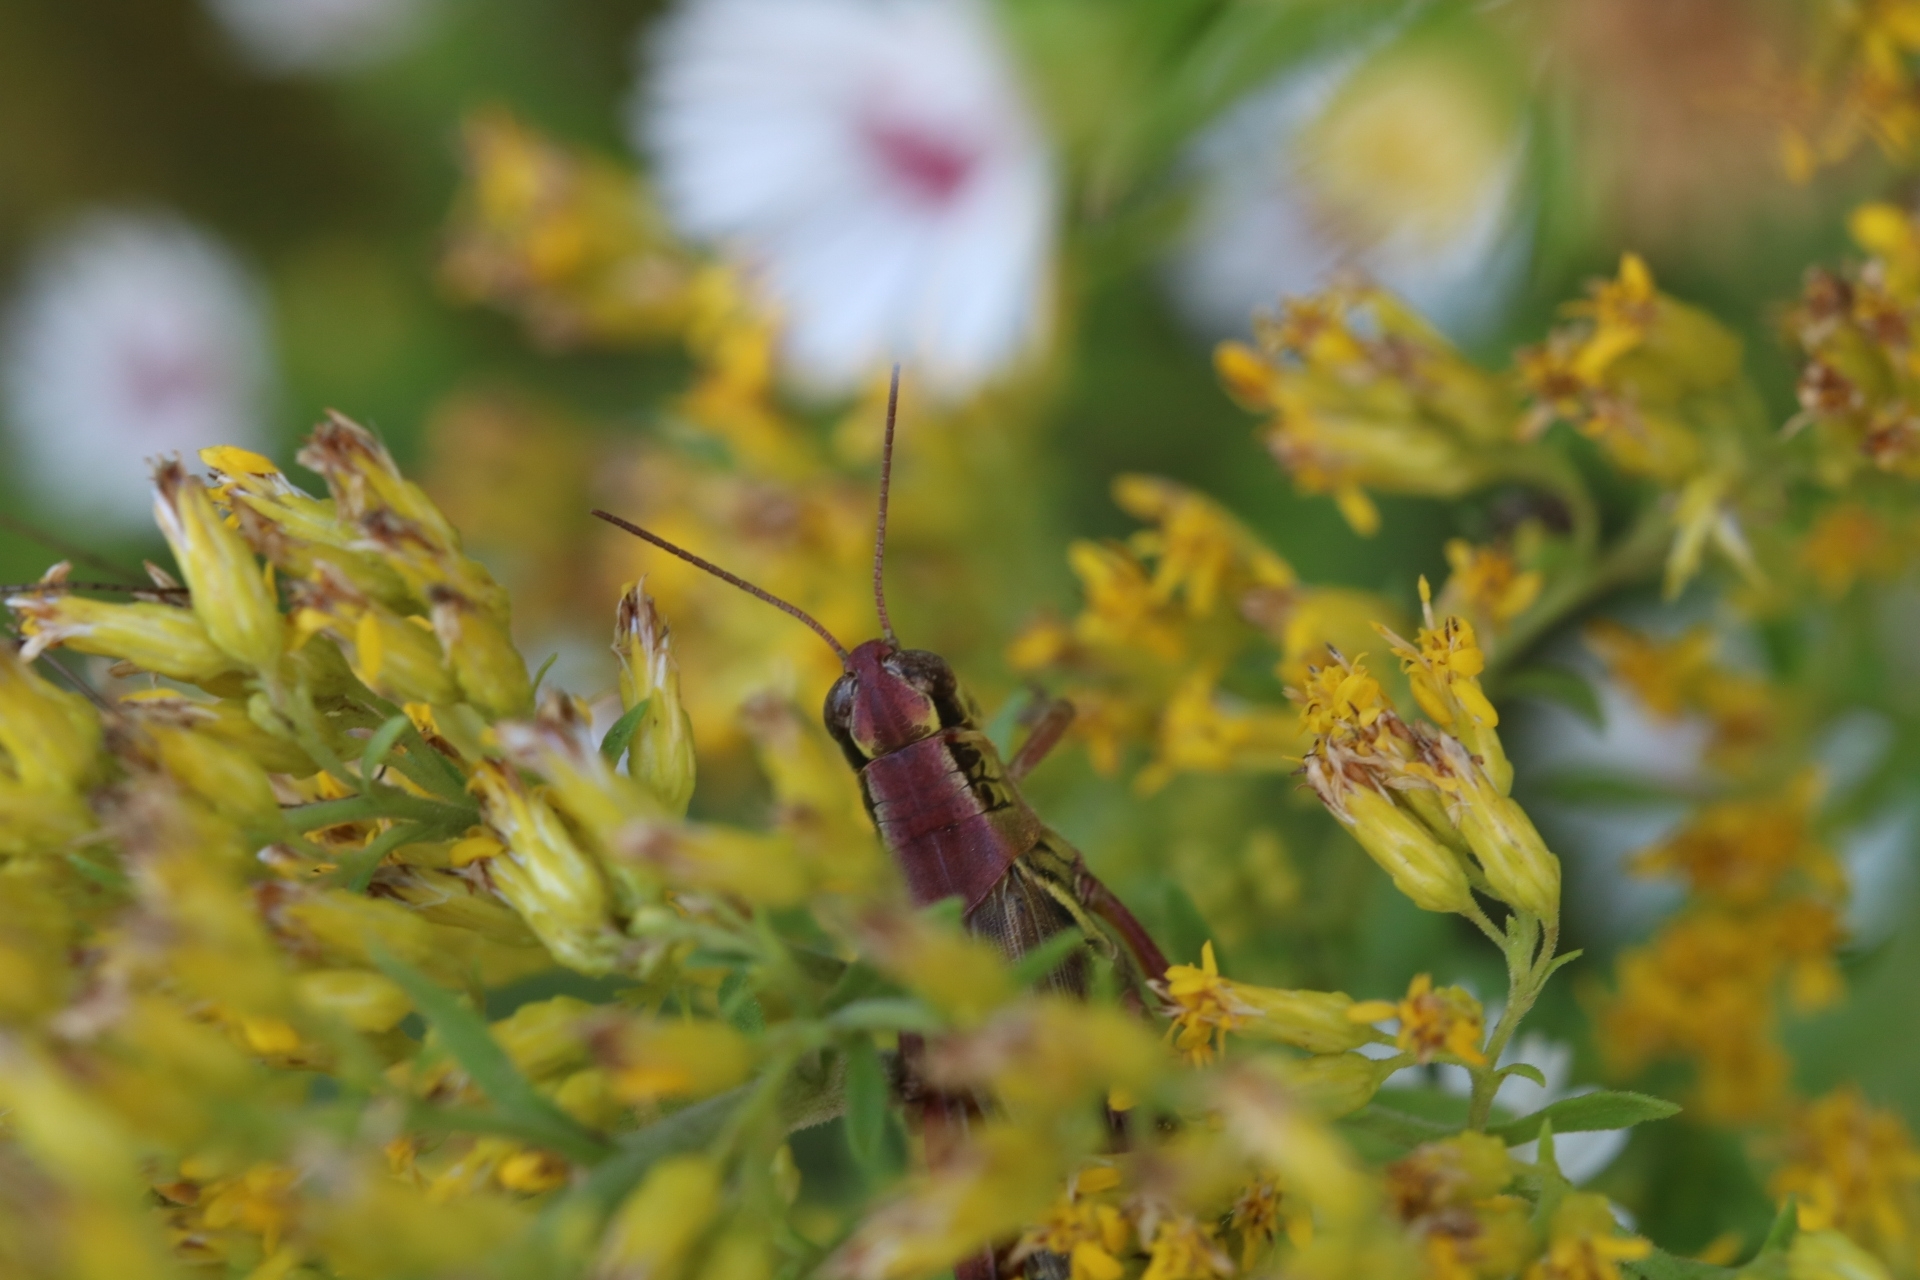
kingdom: Animalia
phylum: Arthropoda
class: Insecta
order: Orthoptera
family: Acrididae
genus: Melanoplus
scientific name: Melanoplus femurrubrum
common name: Red-legged grasshopper
